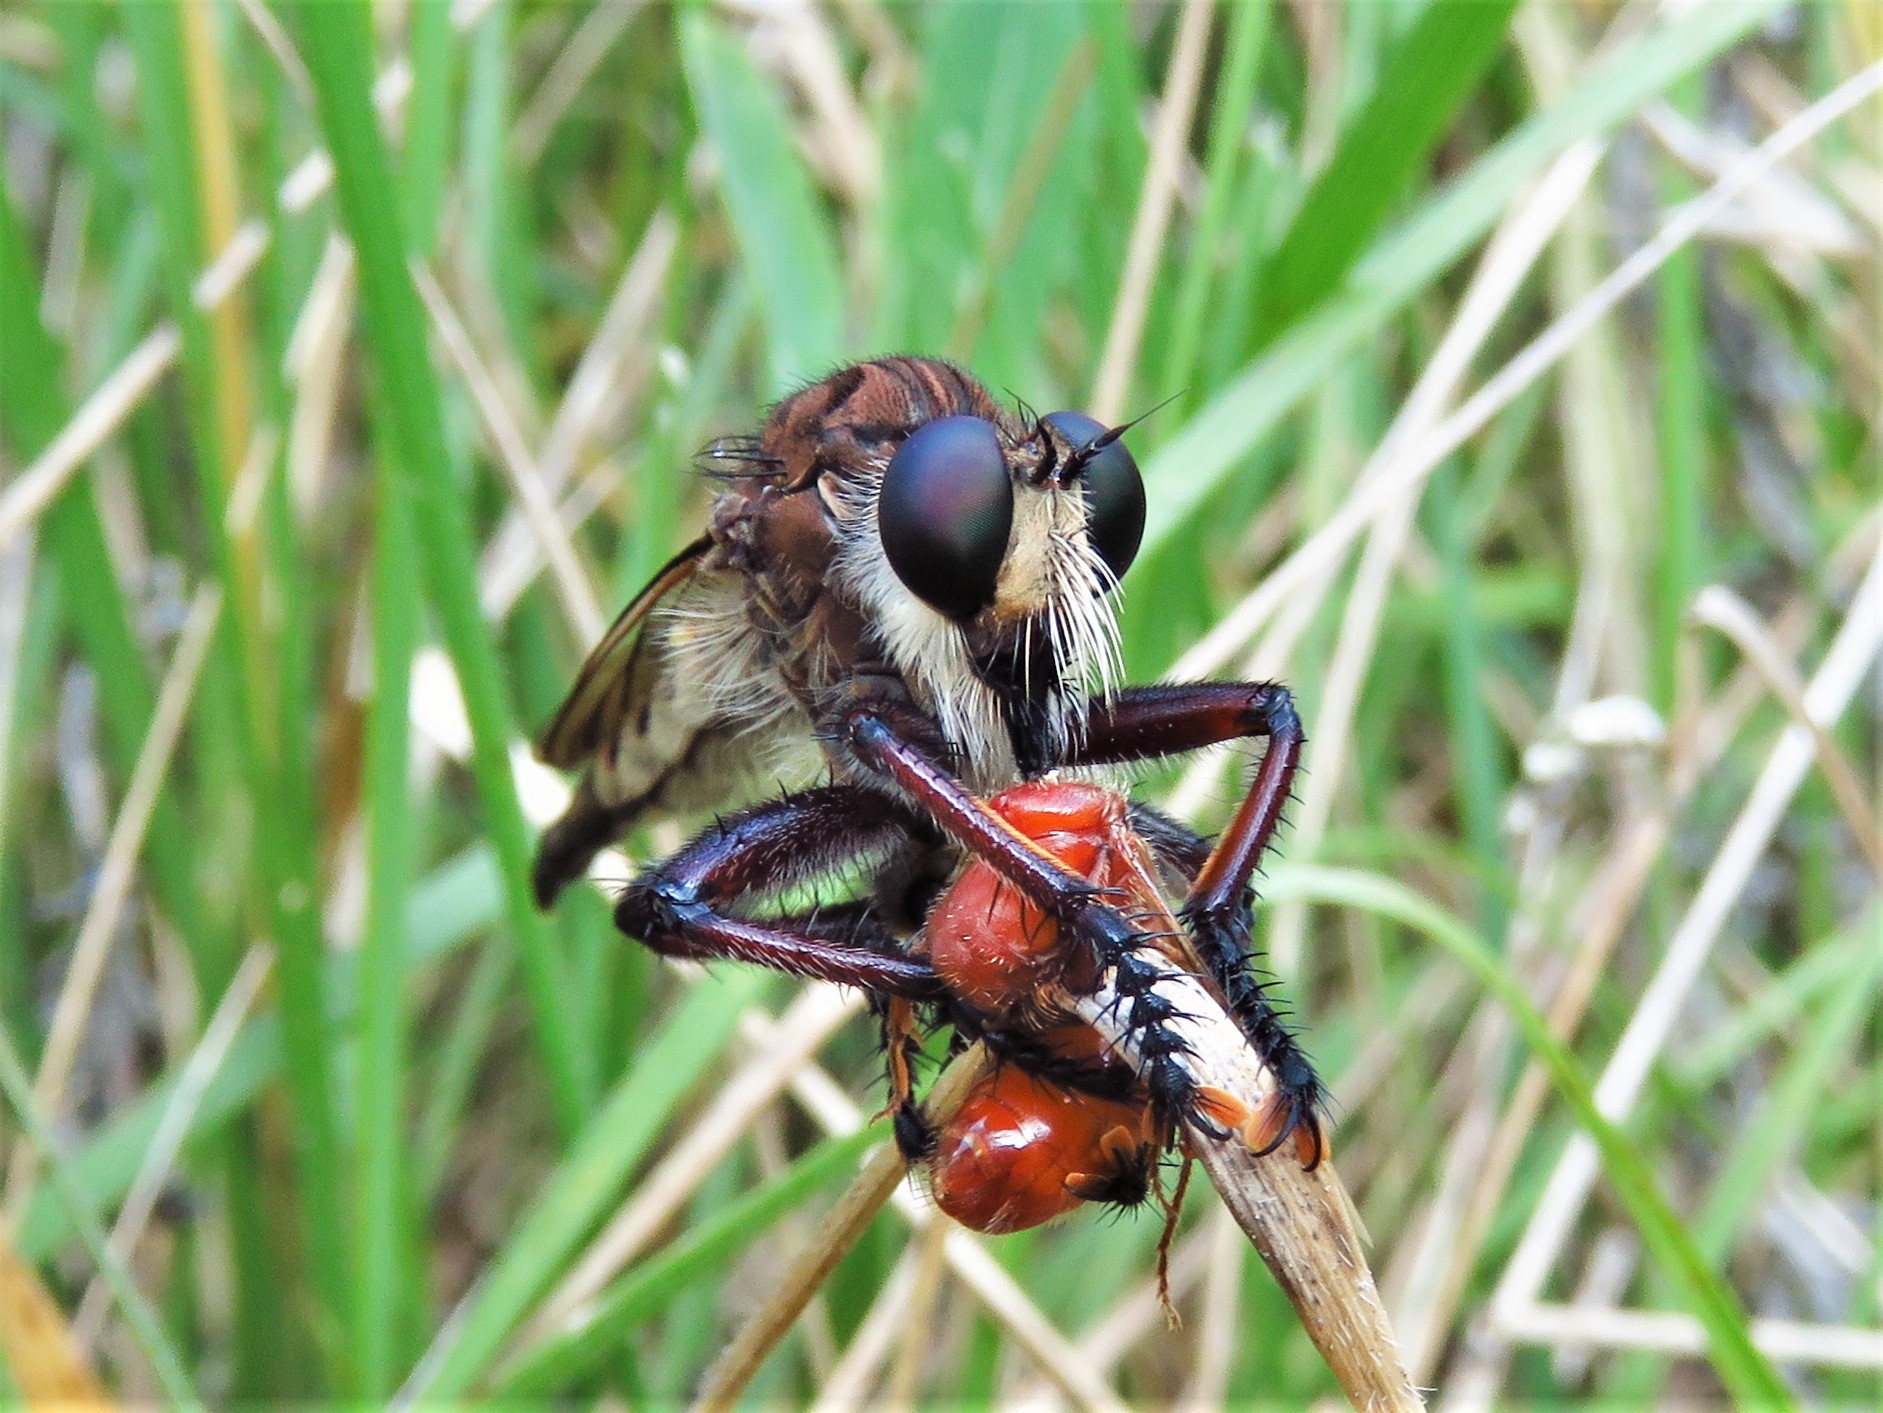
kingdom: Animalia
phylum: Arthropoda
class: Insecta
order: Diptera
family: Asilidae
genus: Promachus
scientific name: Promachus hinei
